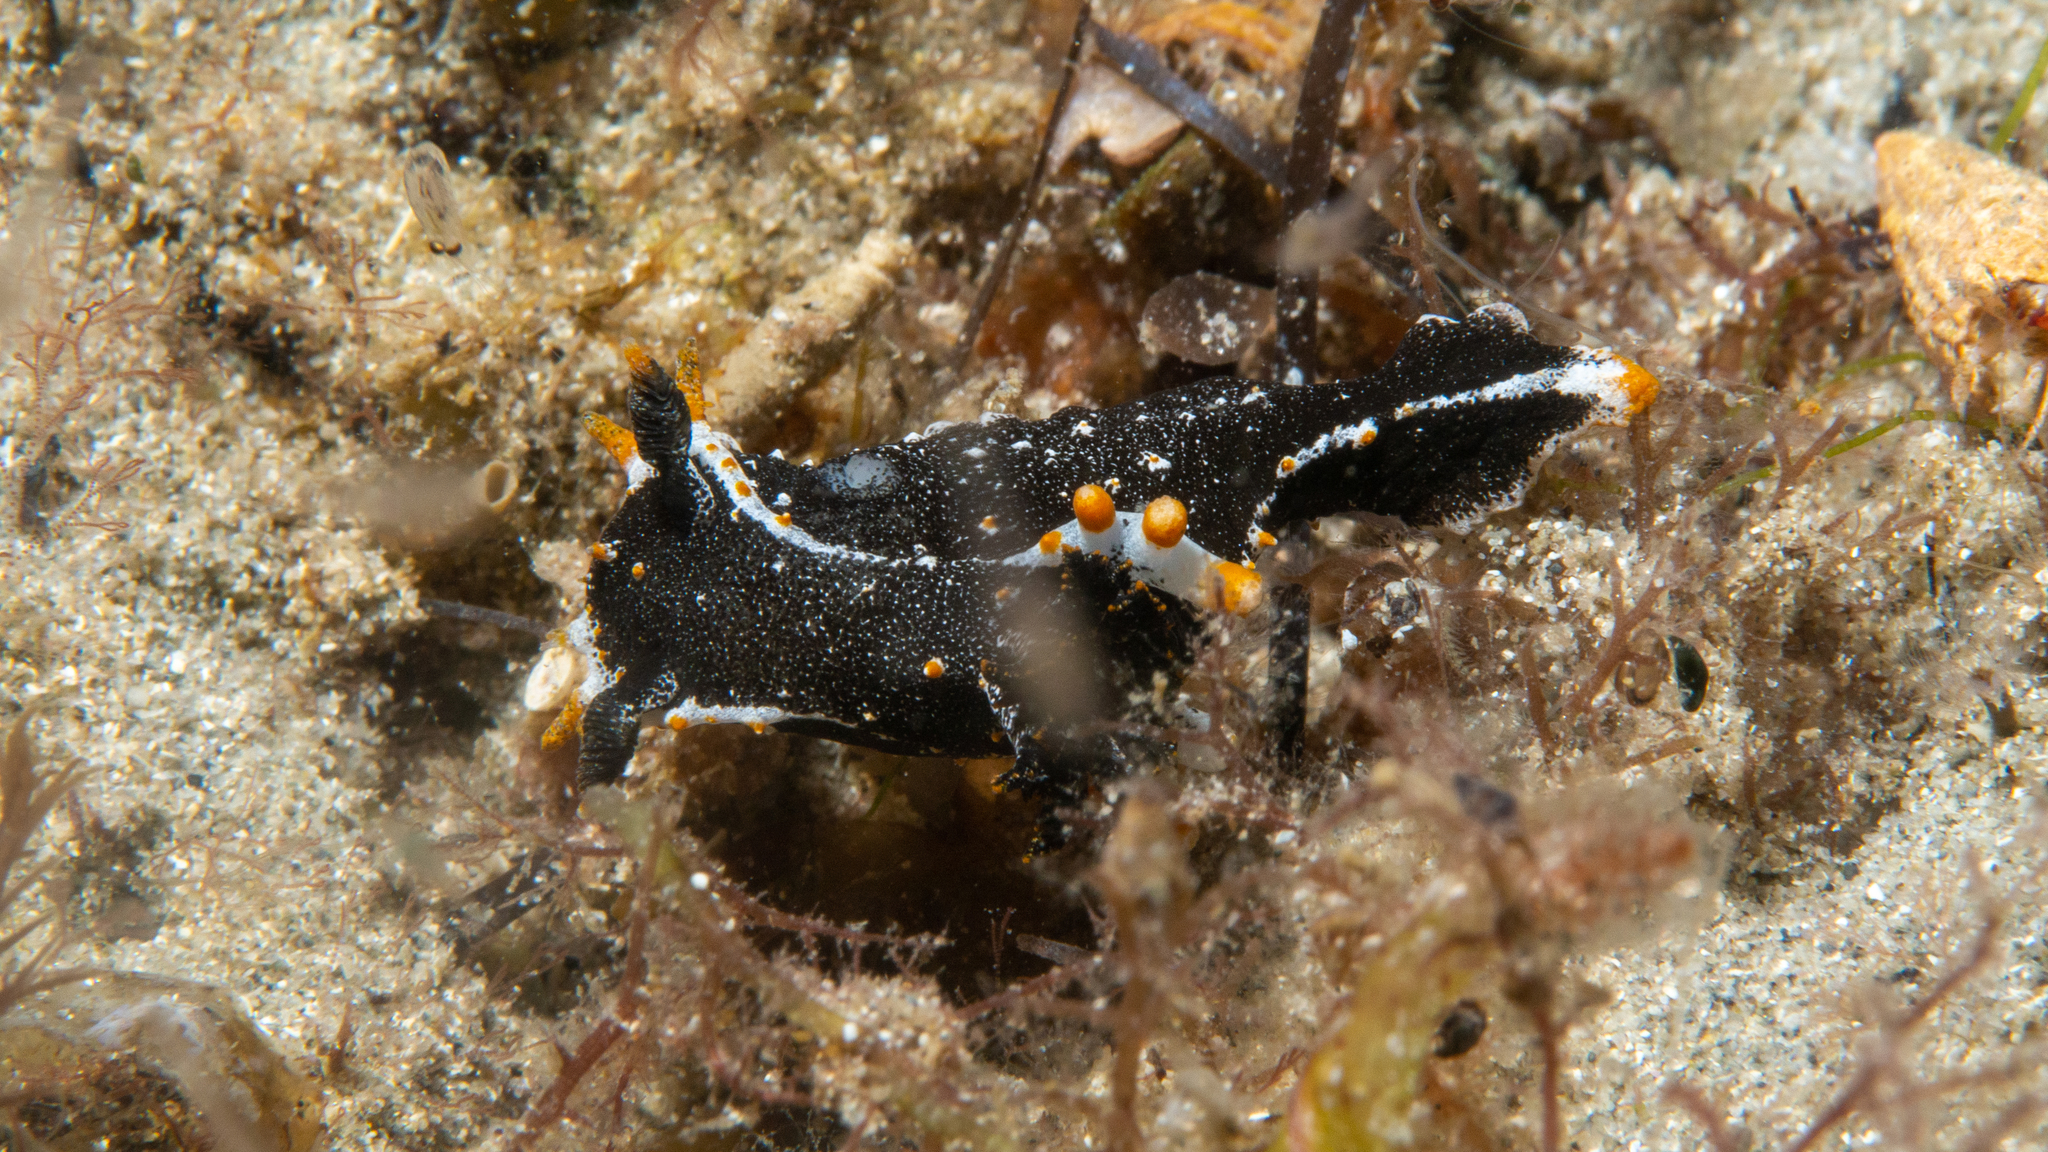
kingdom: Animalia
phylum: Mollusca
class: Gastropoda
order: Nudibranchia
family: Polyceridae
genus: Polycera
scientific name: Polycera hedgpethi
